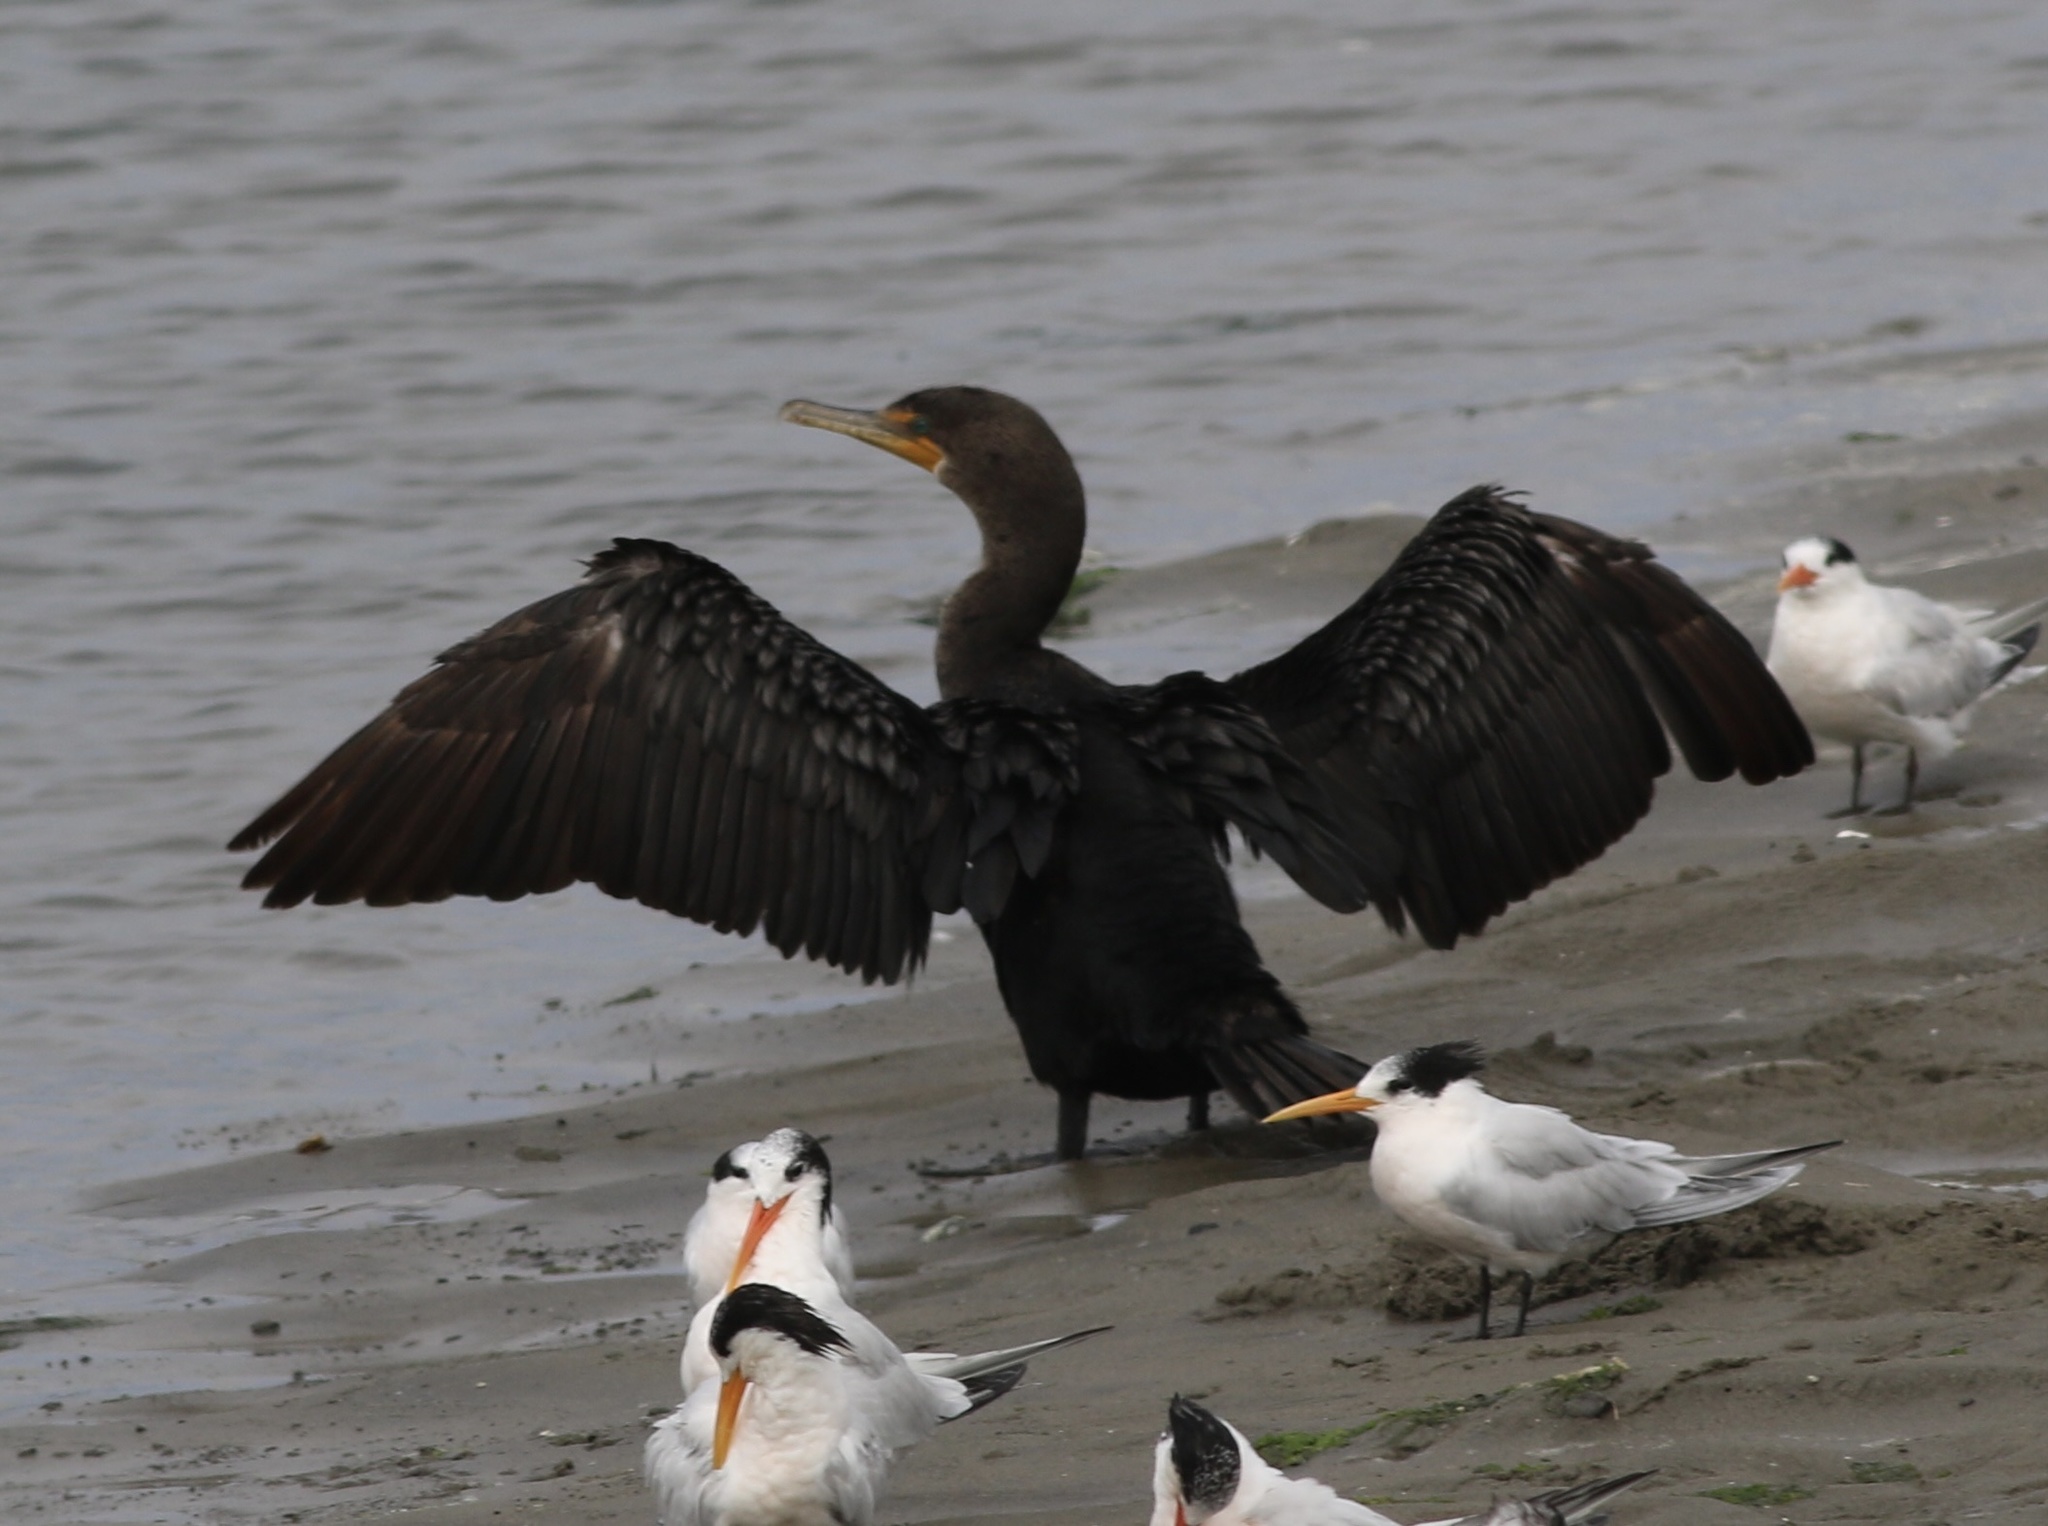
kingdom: Animalia
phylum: Chordata
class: Aves
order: Suliformes
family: Phalacrocoracidae
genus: Phalacrocorax
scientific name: Phalacrocorax auritus
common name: Double-crested cormorant
